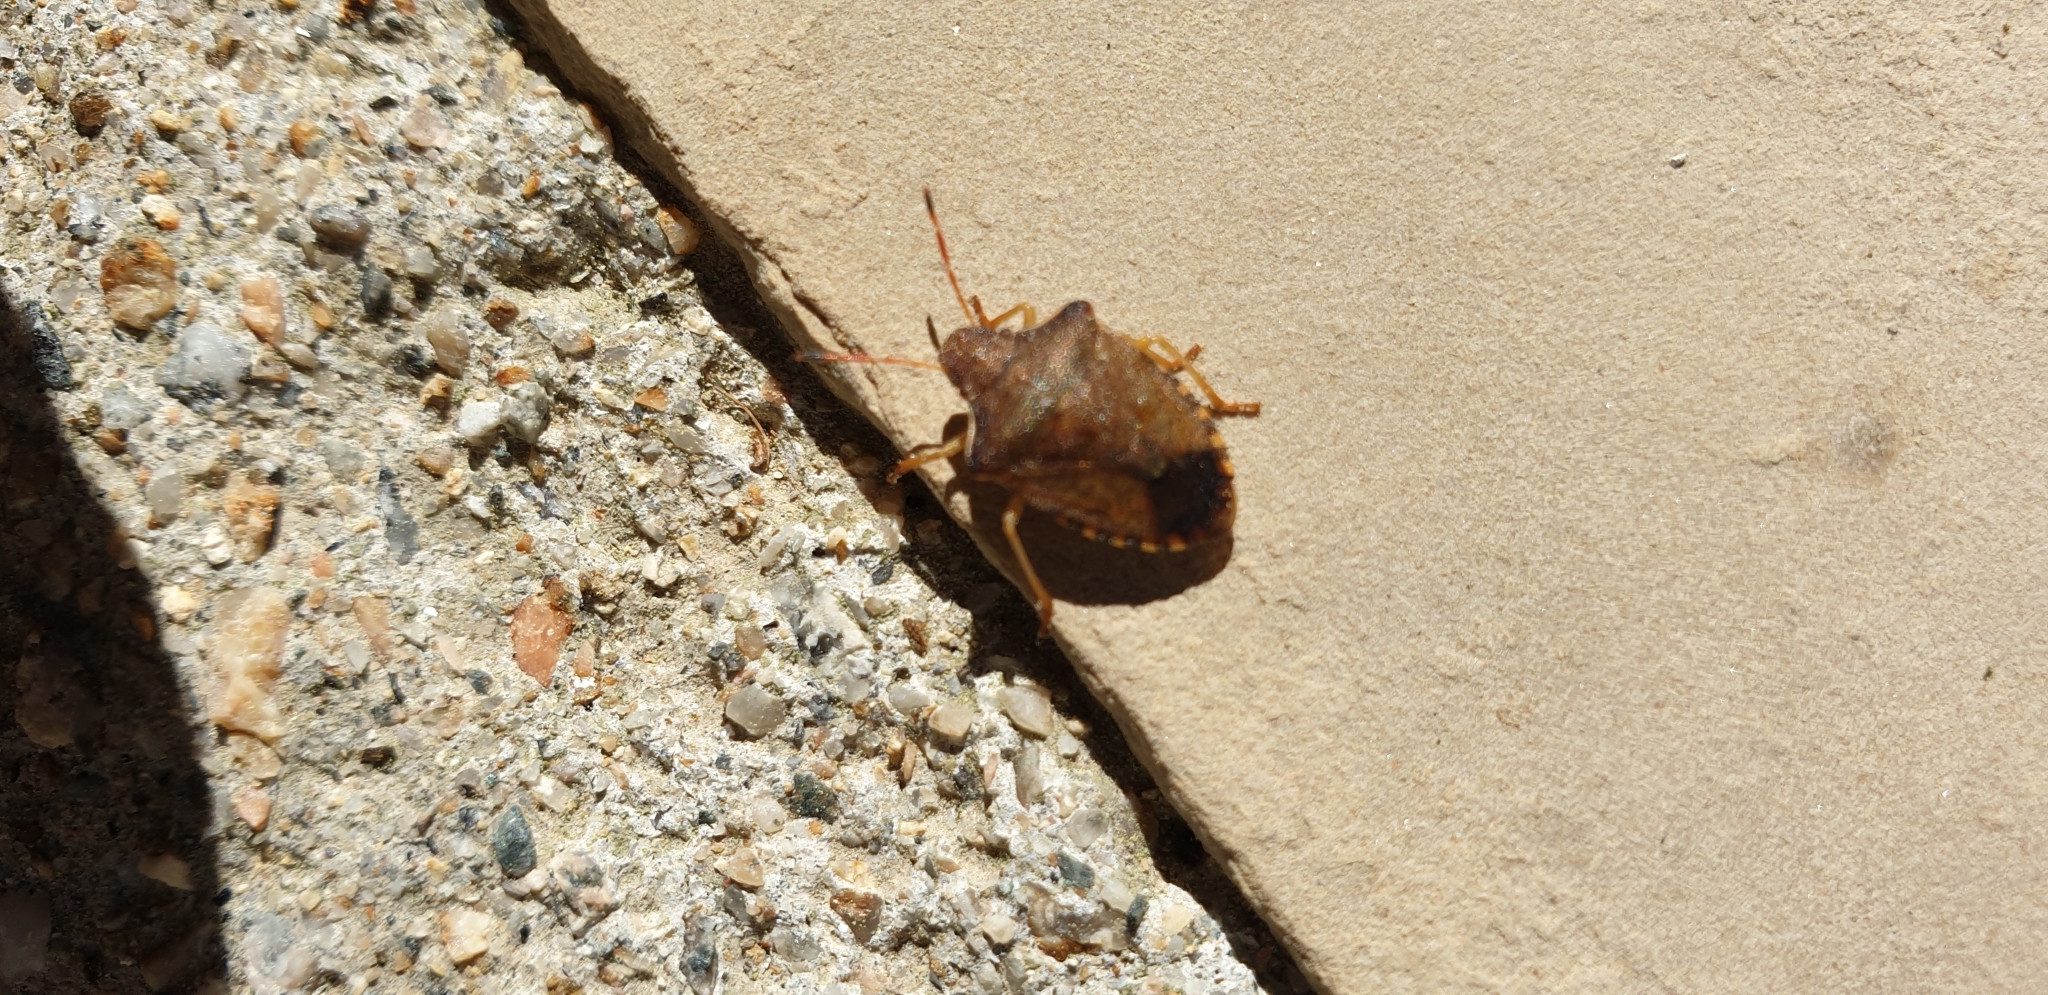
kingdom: Animalia
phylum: Arthropoda
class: Insecta
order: Hemiptera
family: Pentatomidae
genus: Holcostethus
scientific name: Holcostethus strictus
